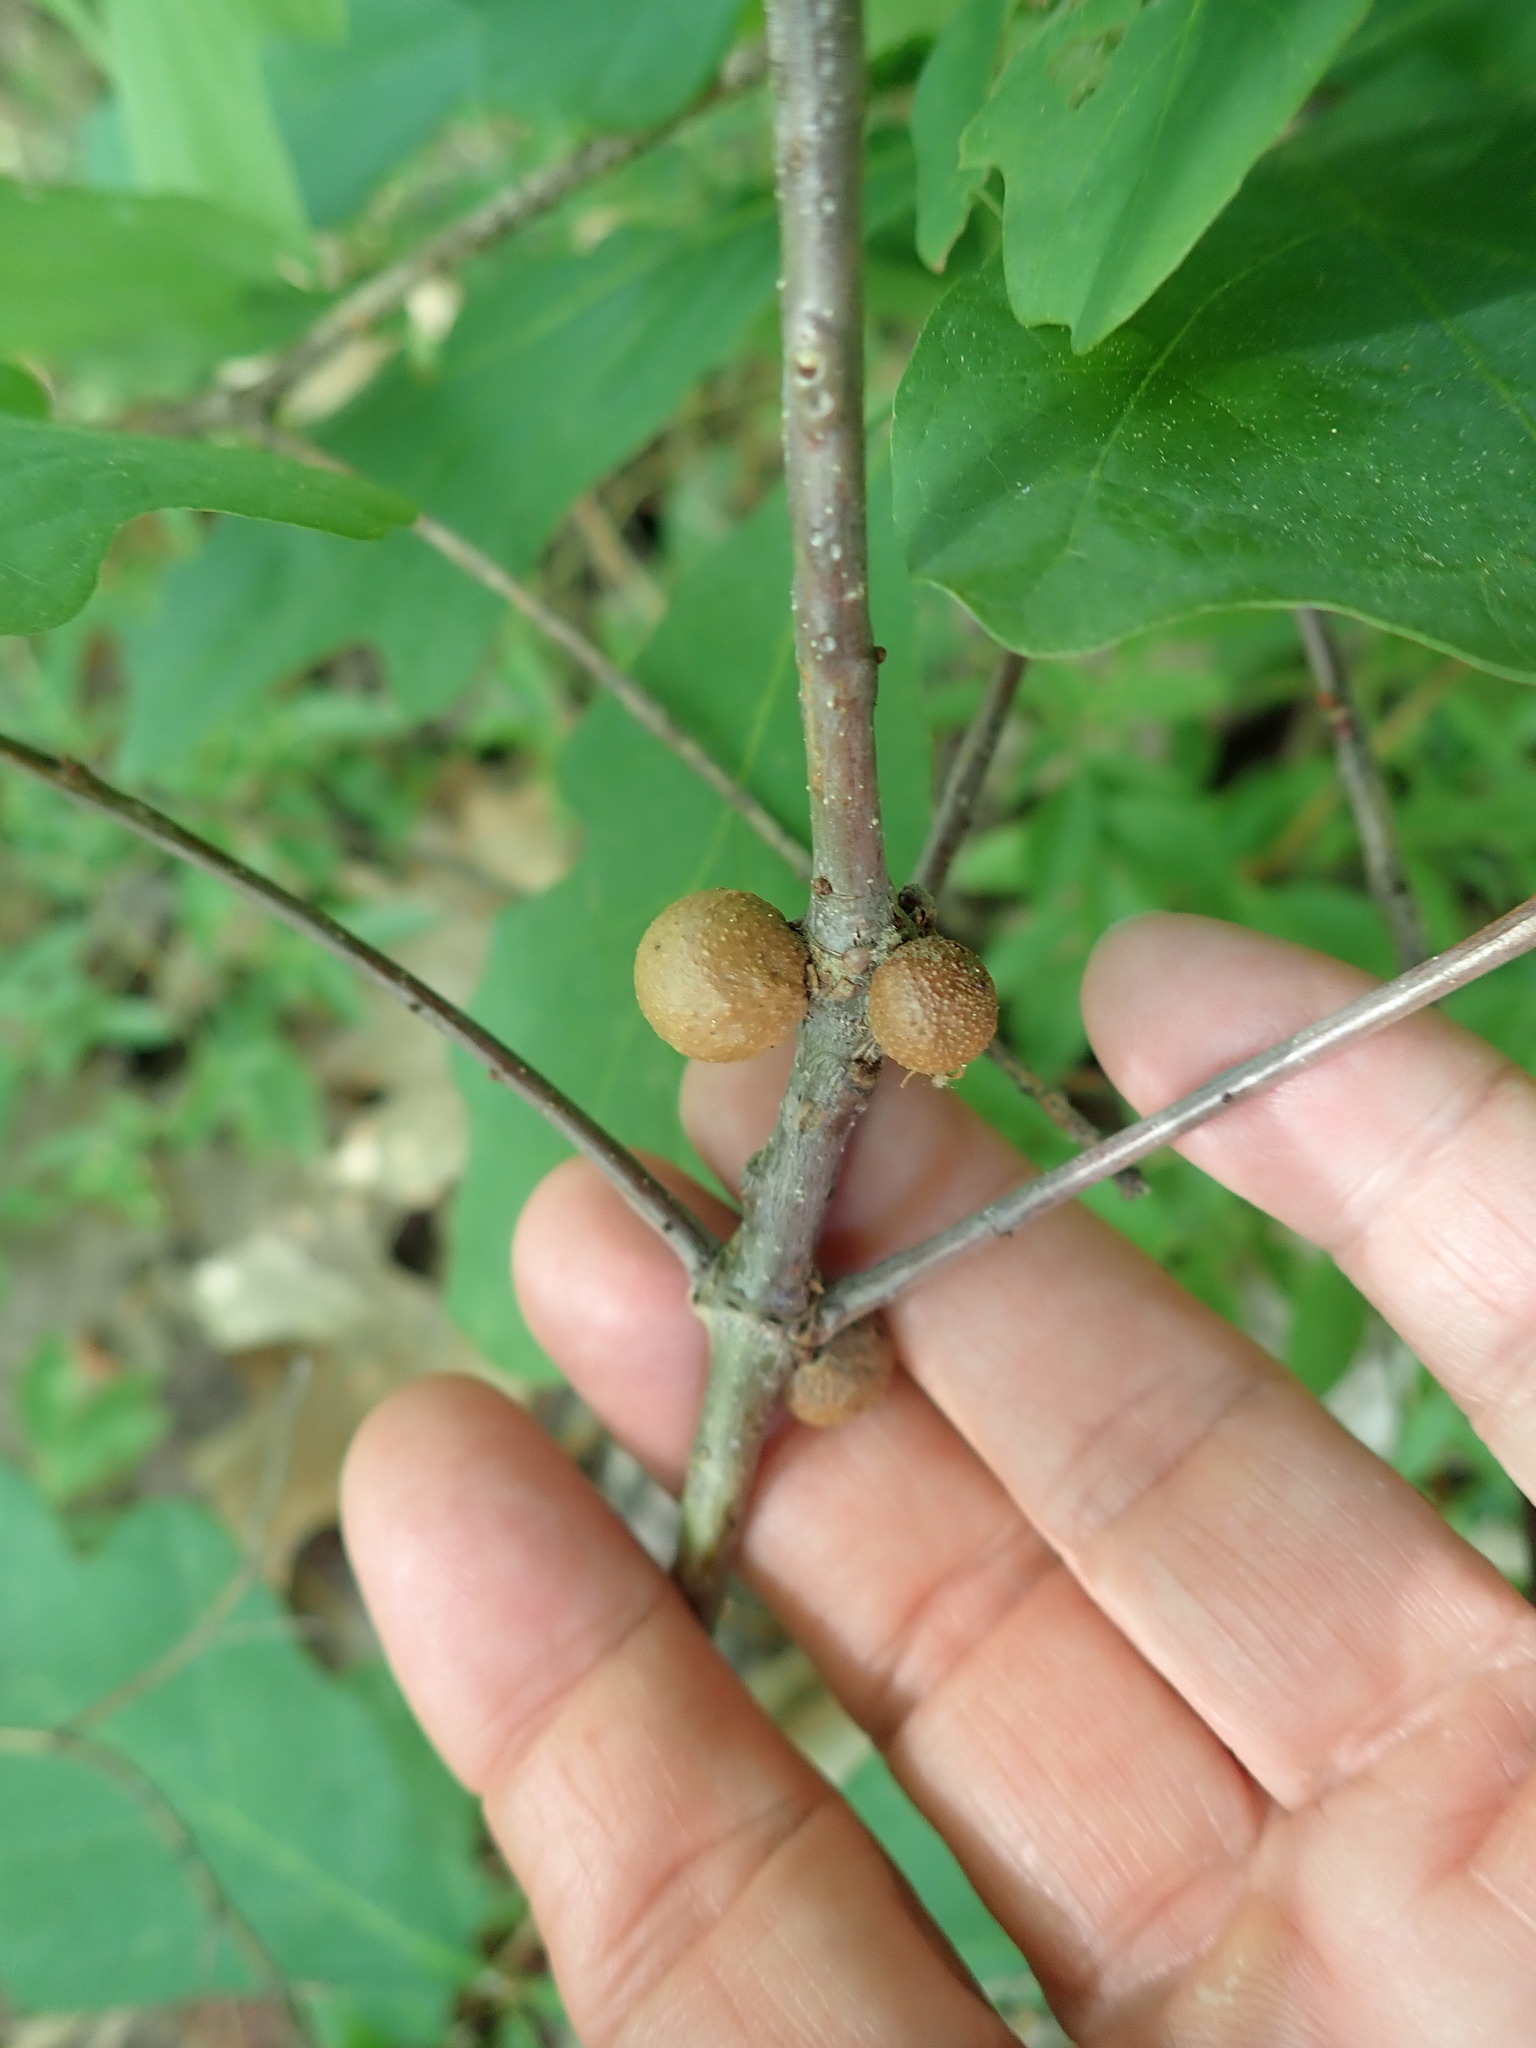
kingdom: Animalia
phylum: Arthropoda
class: Insecta
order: Hymenoptera
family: Cynipidae
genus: Disholcaspis
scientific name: Disholcaspis quercusglobulus
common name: Round bullet gall wasp
